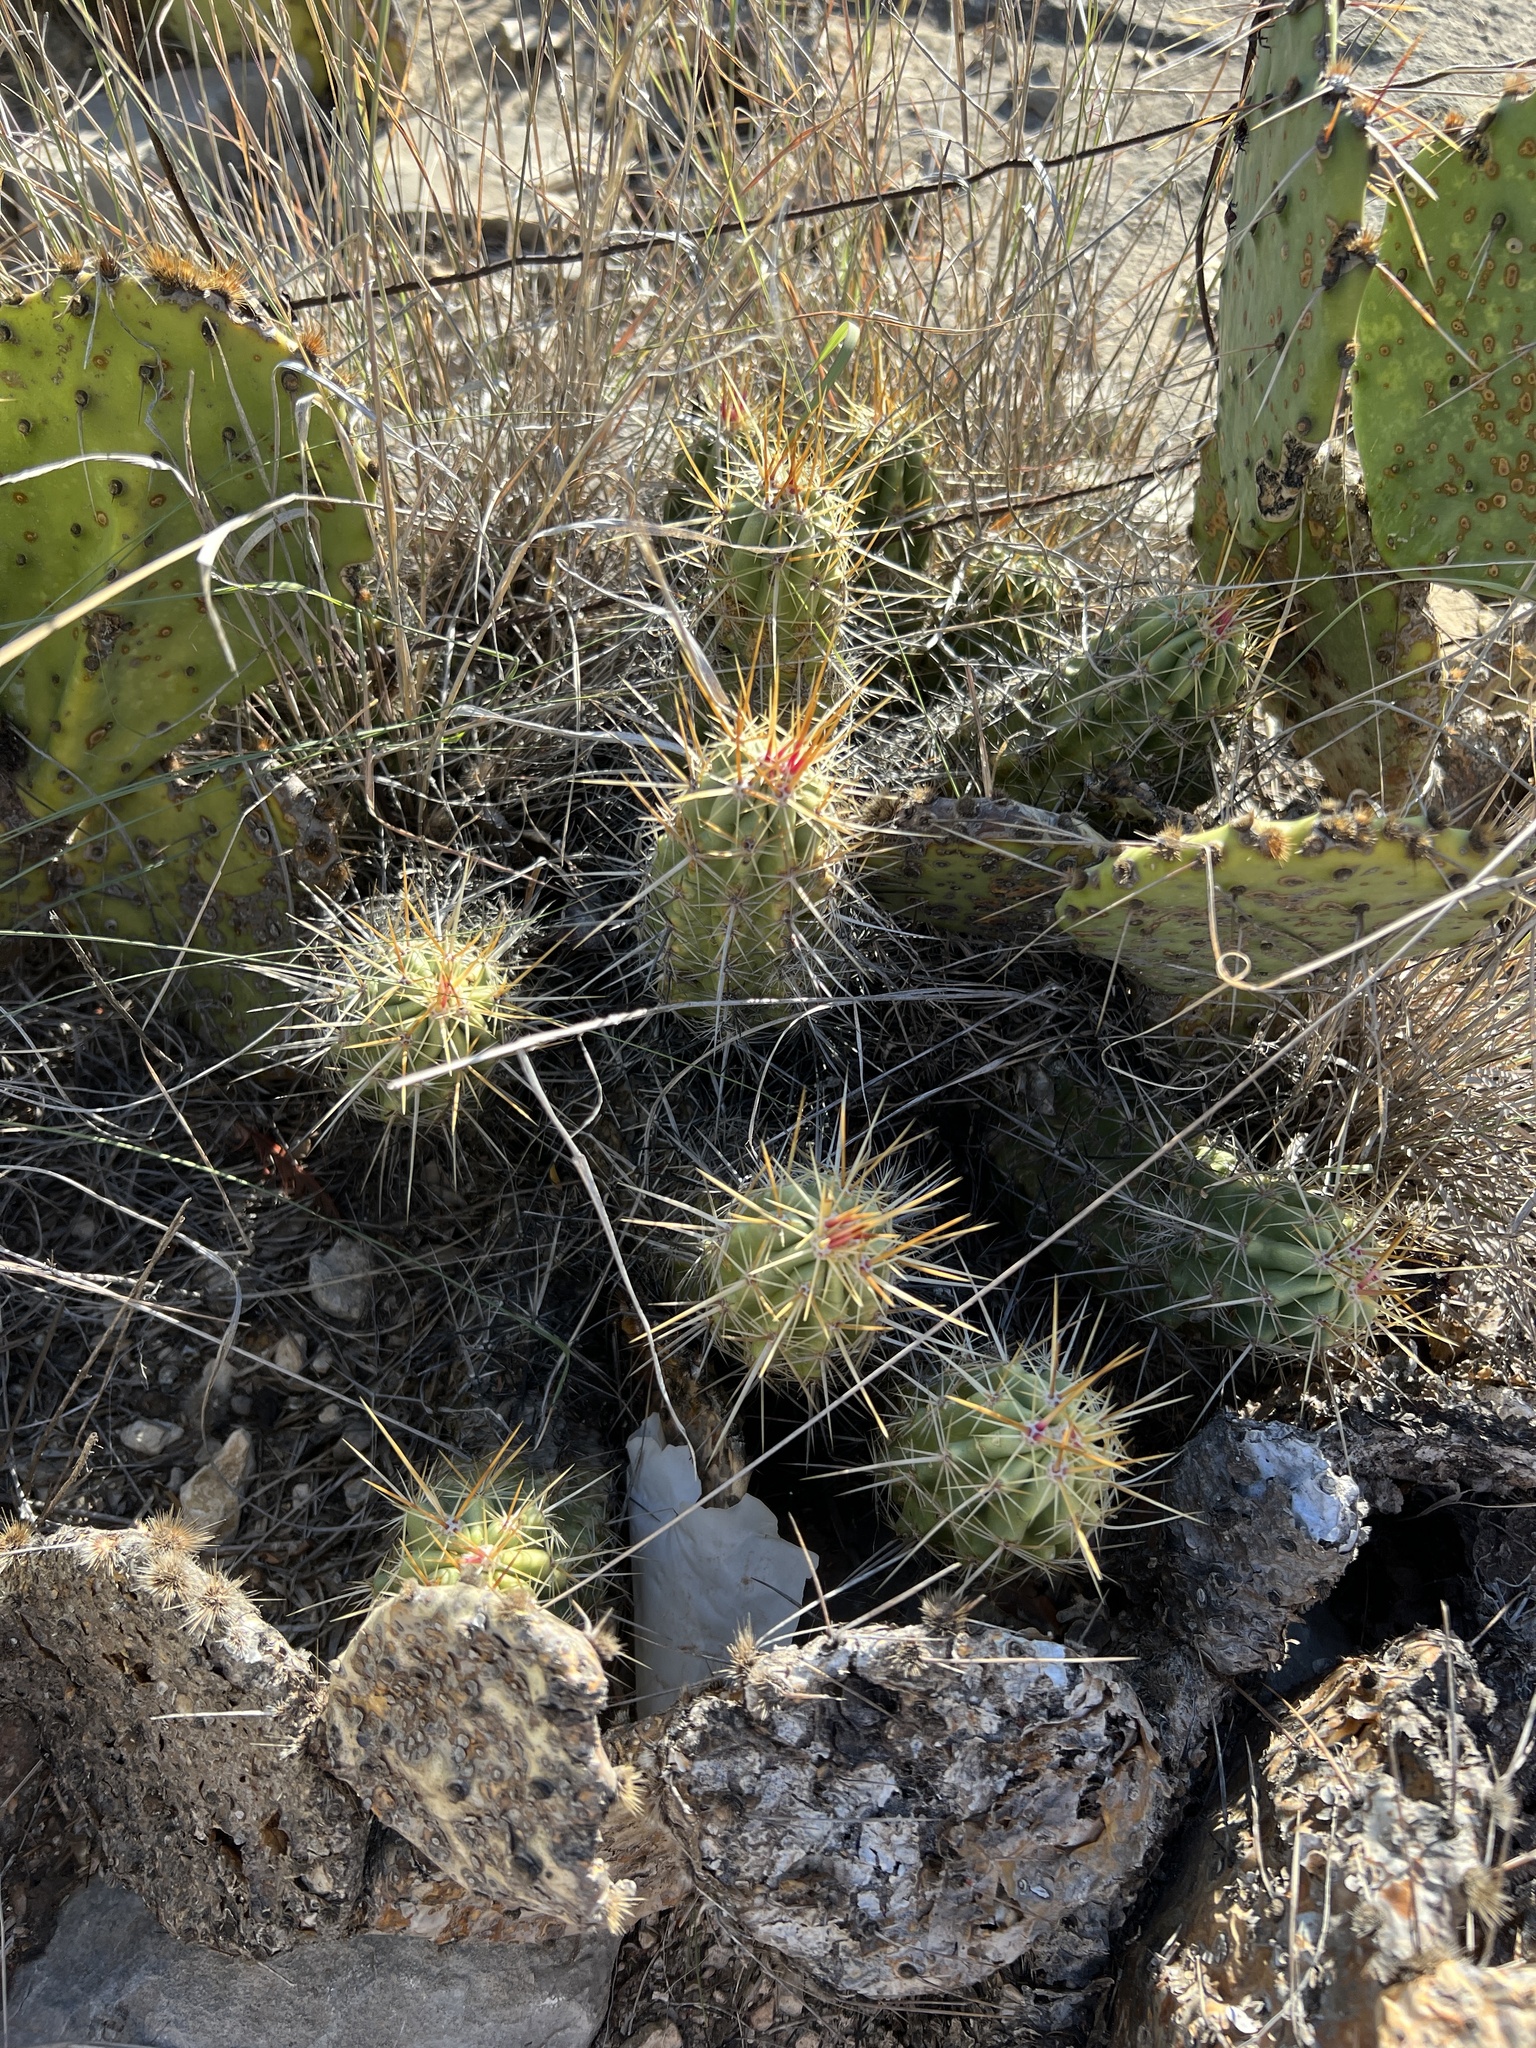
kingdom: Plantae
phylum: Tracheophyta
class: Magnoliopsida
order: Caryophyllales
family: Cactaceae
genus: Echinocereus
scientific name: Echinocereus enneacanthus
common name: Pitaya
